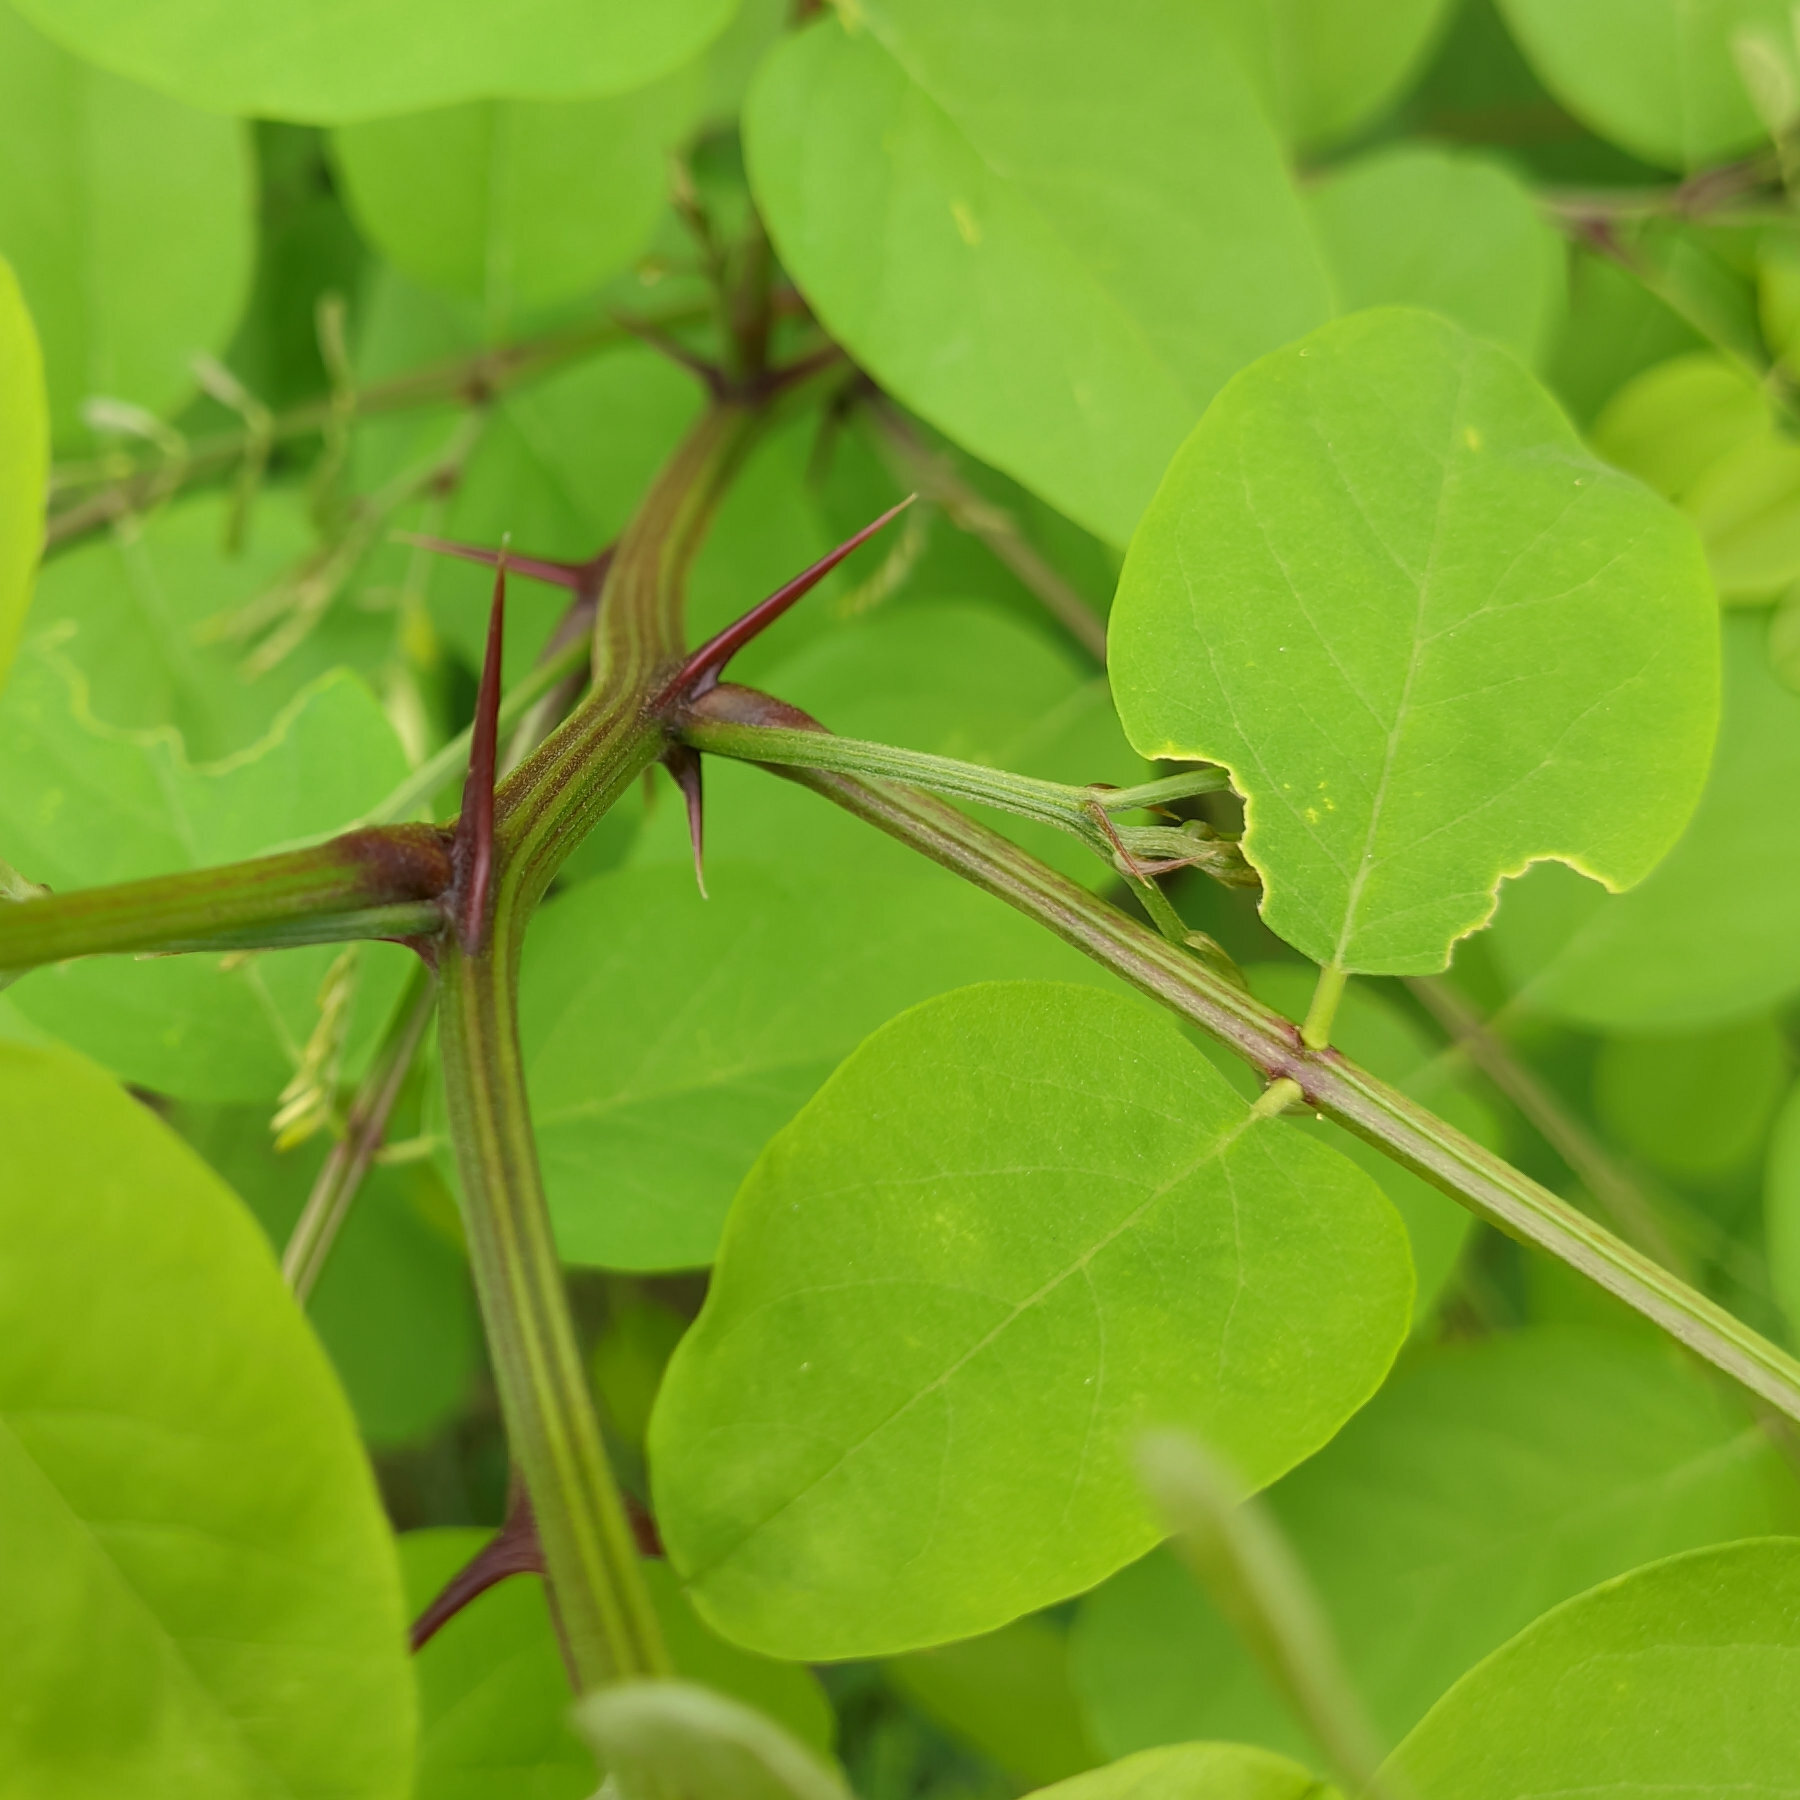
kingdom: Plantae
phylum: Tracheophyta
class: Magnoliopsida
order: Fabales
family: Fabaceae
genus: Robinia
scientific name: Robinia pseudoacacia
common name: Black locust
